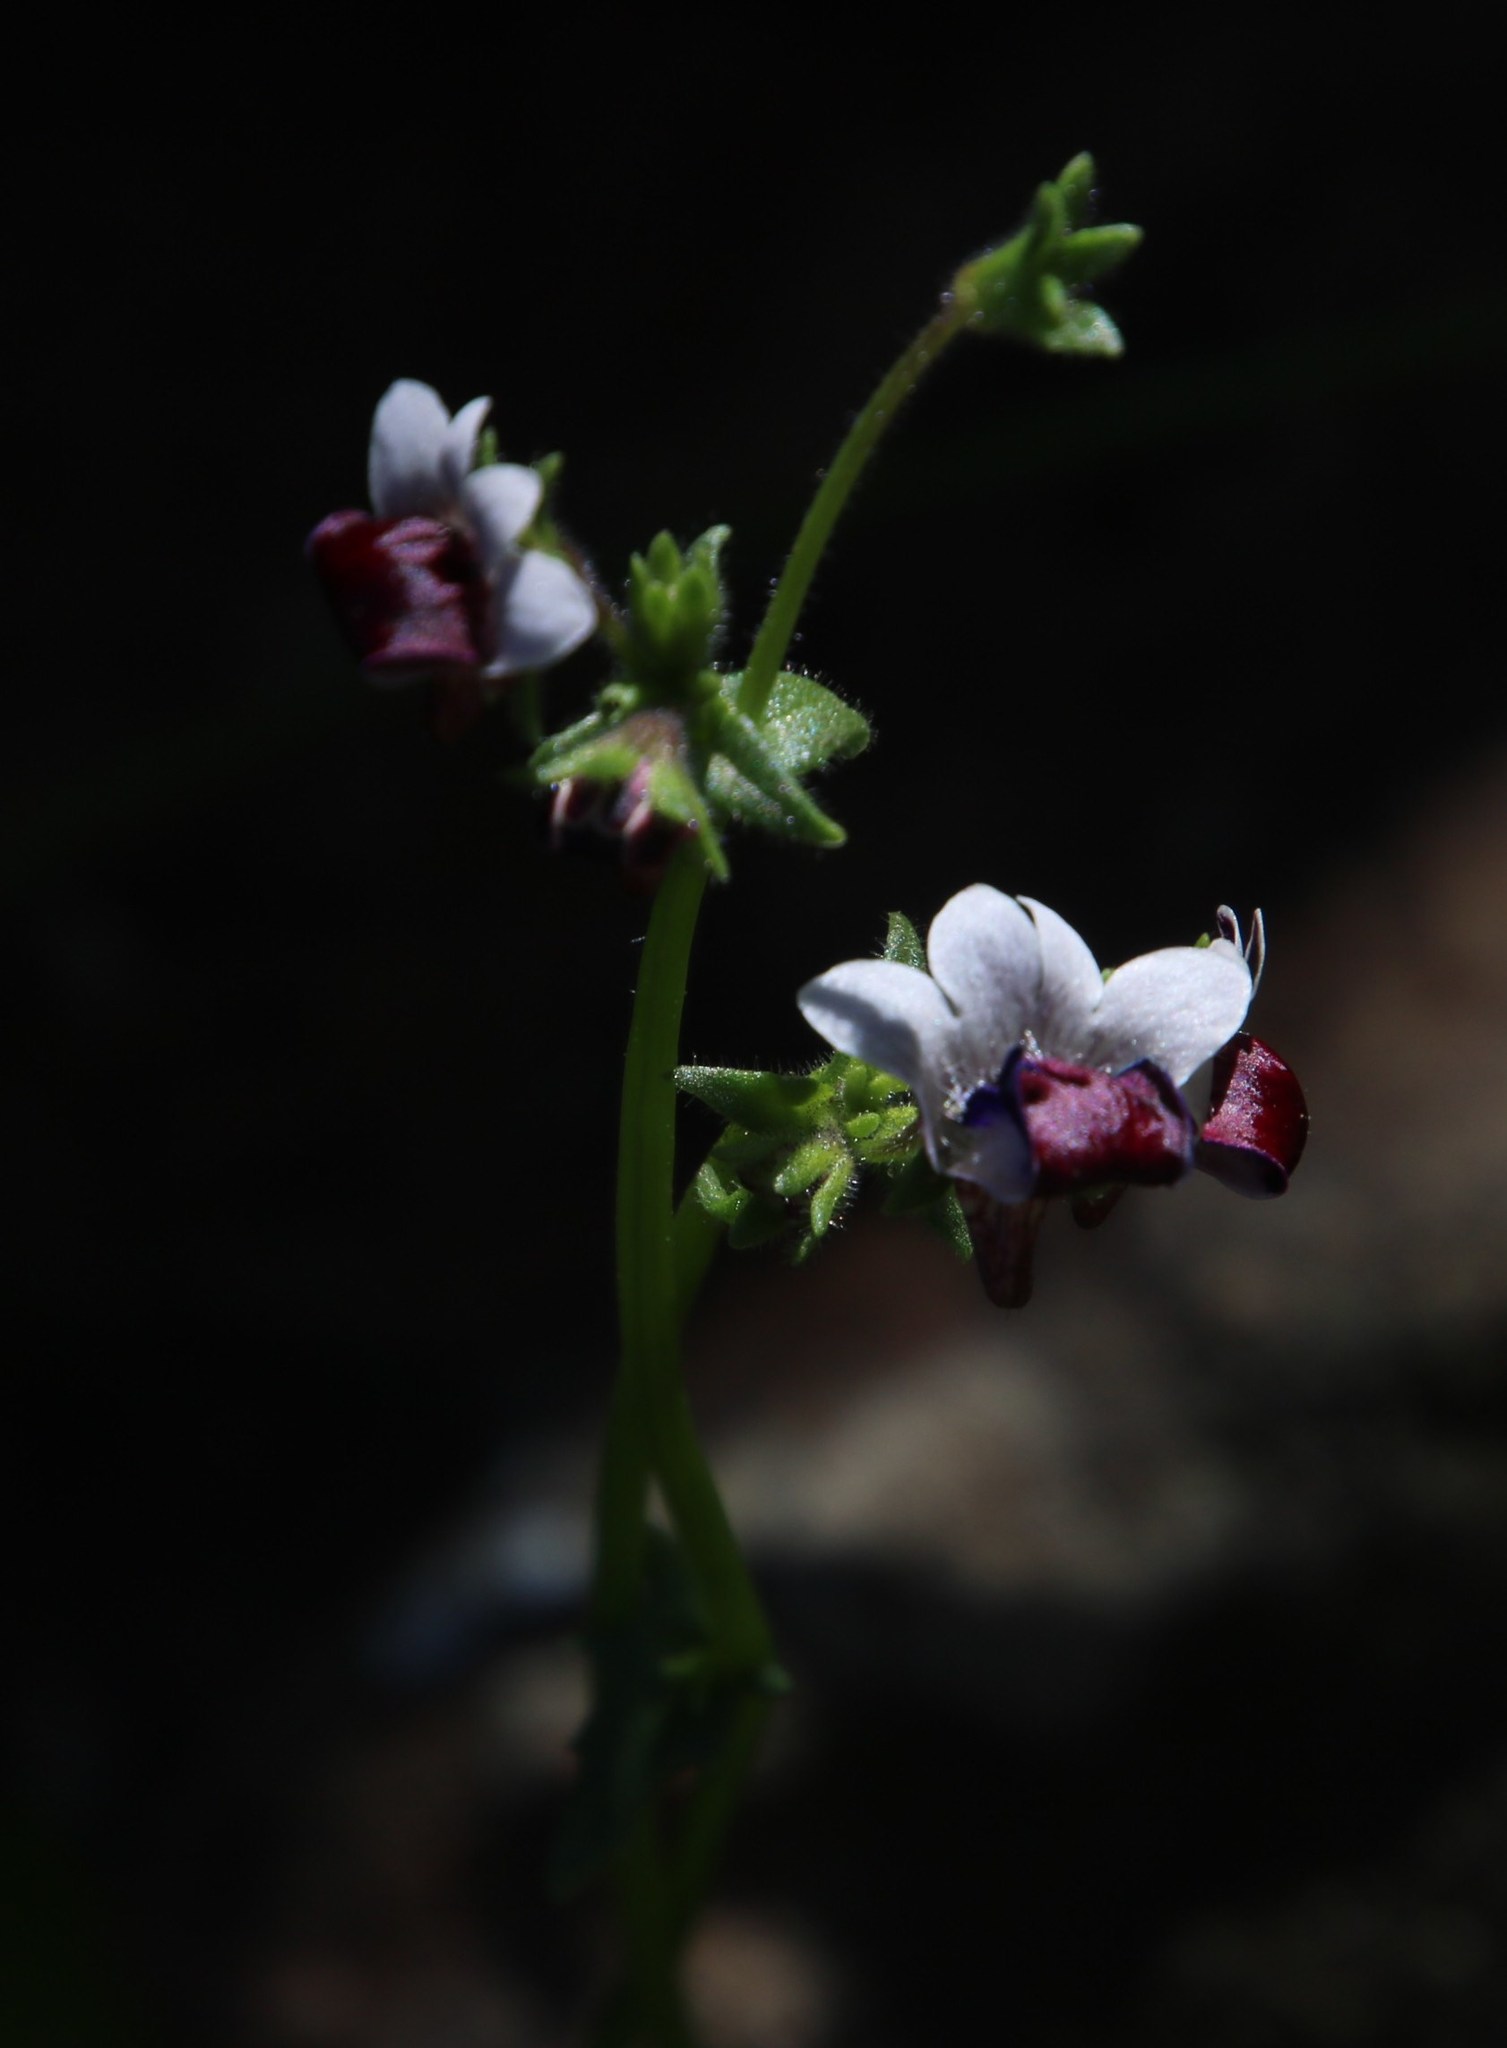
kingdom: Plantae
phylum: Tracheophyta
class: Magnoliopsida
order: Lamiales
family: Scrophulariaceae
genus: Nemesia
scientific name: Nemesia barbata
